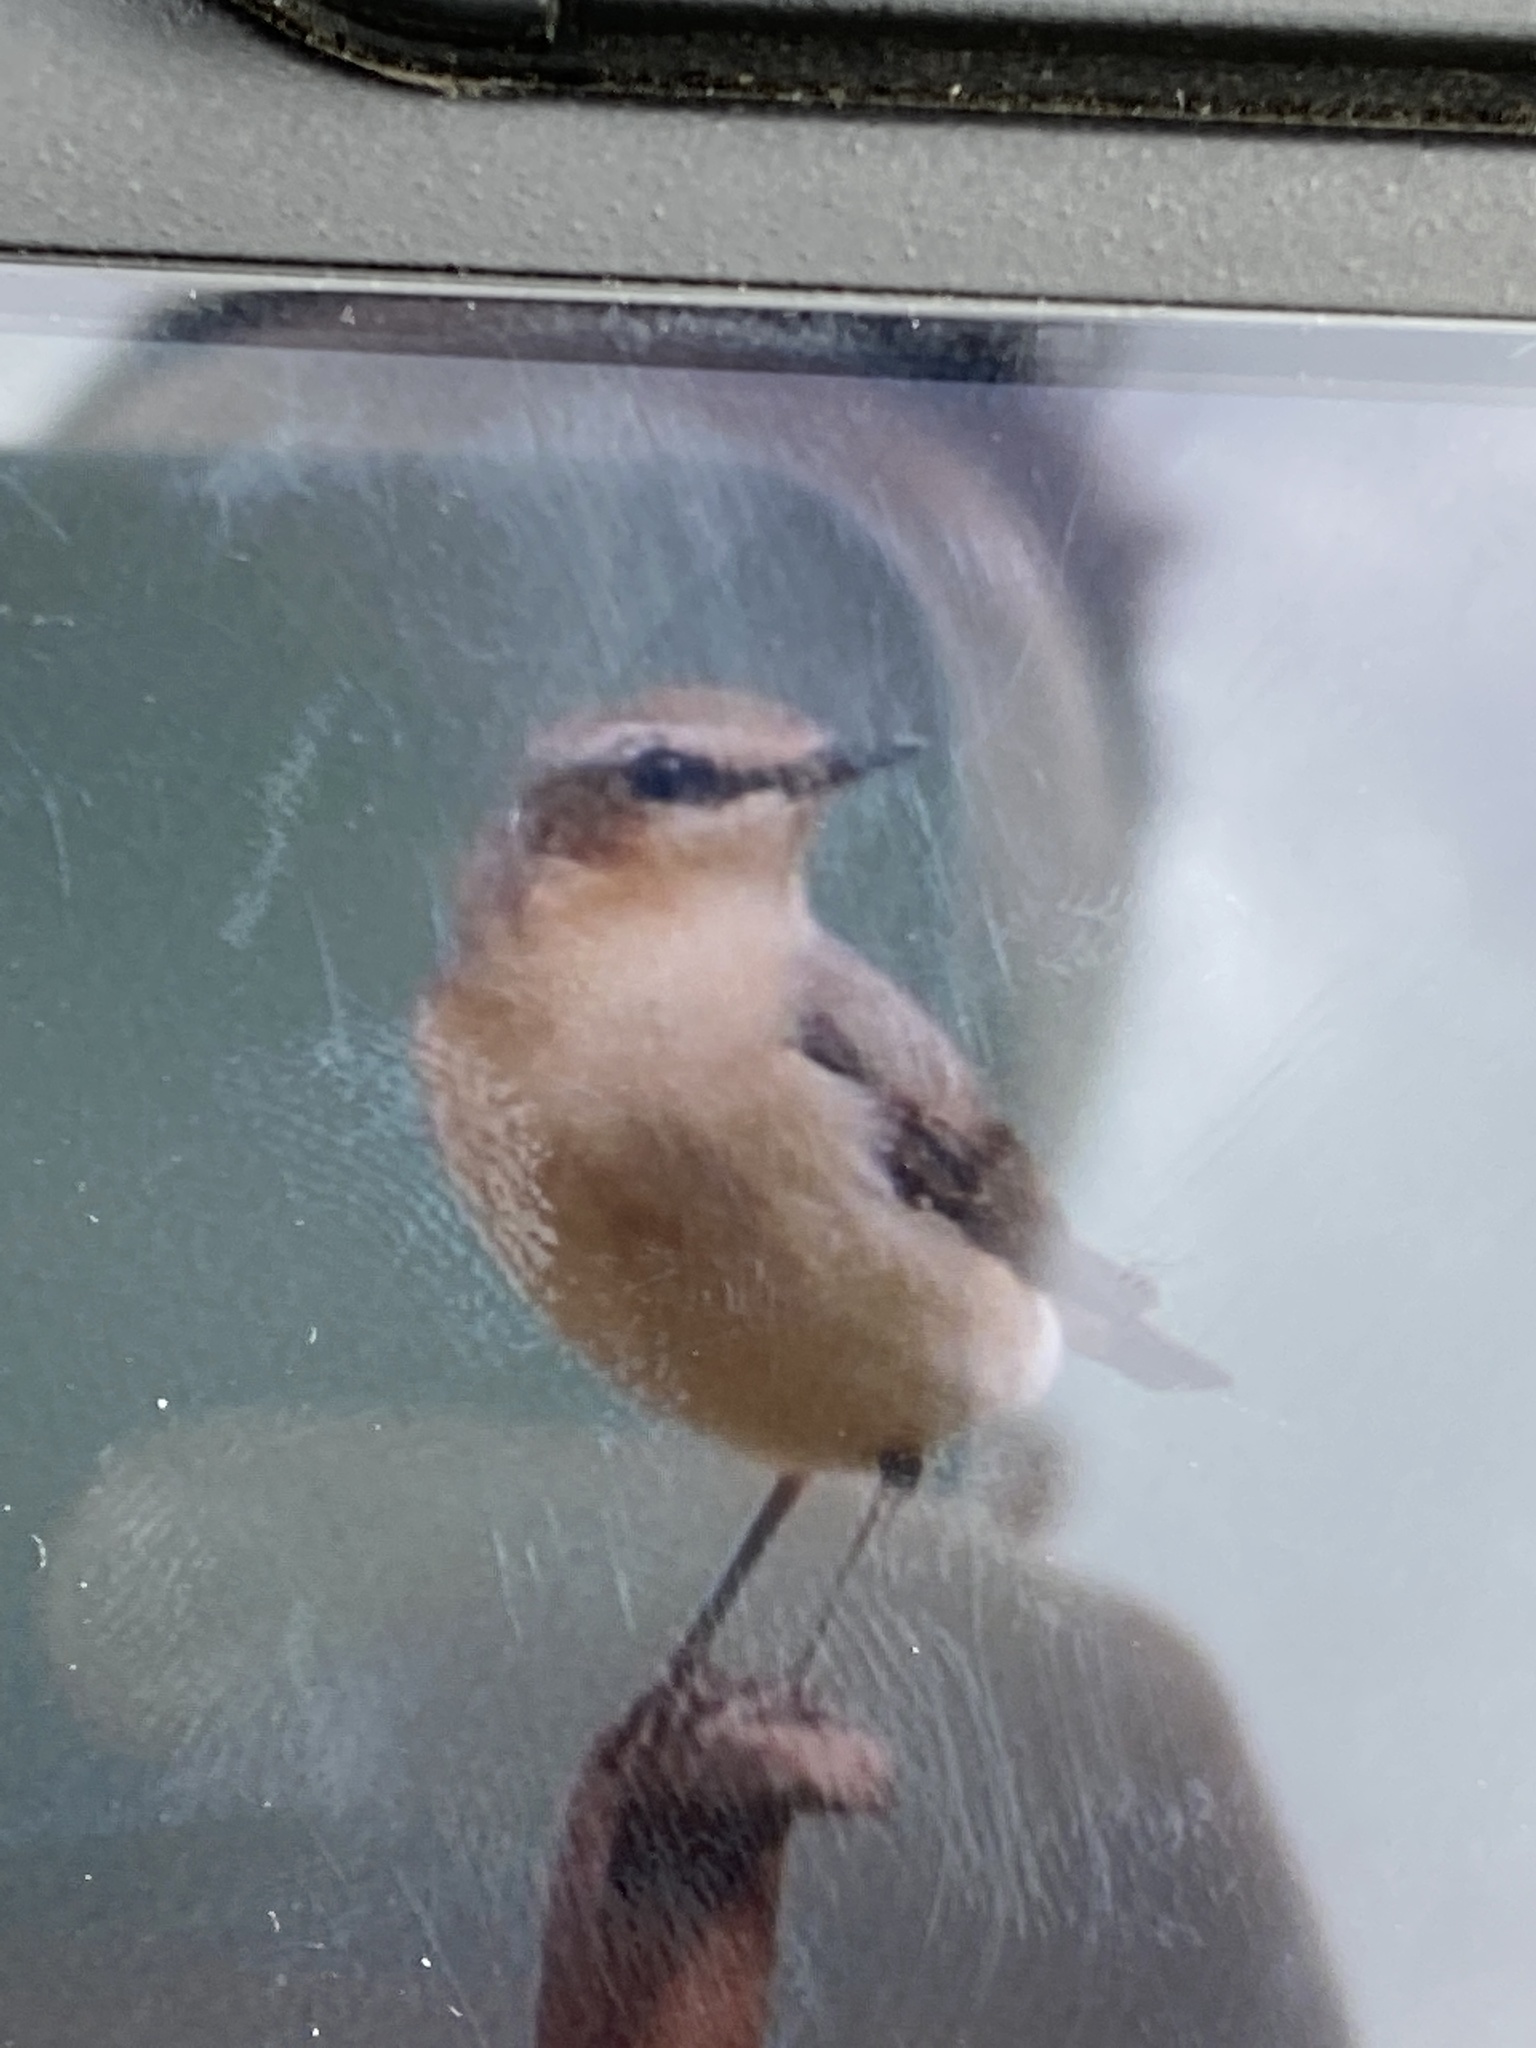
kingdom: Animalia
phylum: Chordata
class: Aves
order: Passeriformes
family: Muscicapidae
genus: Oenanthe
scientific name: Oenanthe oenanthe
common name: Northern wheatear
